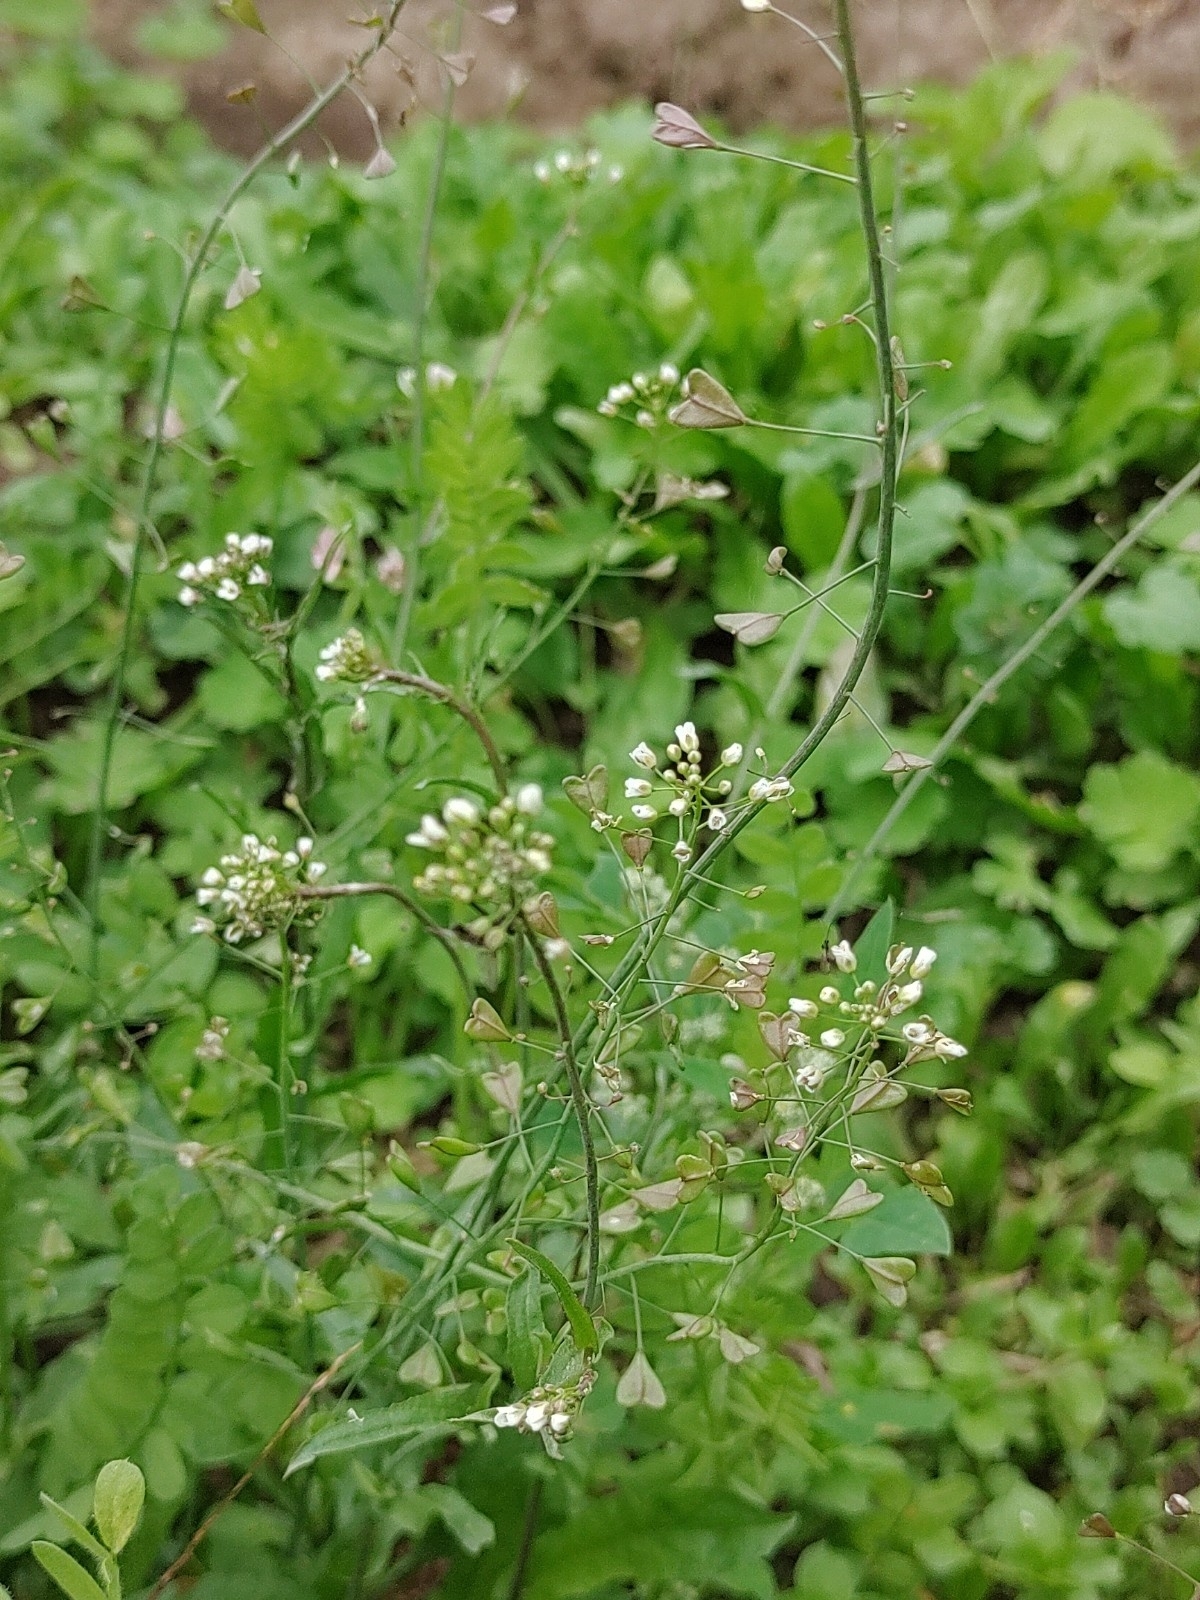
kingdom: Plantae
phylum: Tracheophyta
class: Magnoliopsida
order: Brassicales
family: Brassicaceae
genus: Capsella
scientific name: Capsella bursa-pastoris
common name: Shepherd's purse
